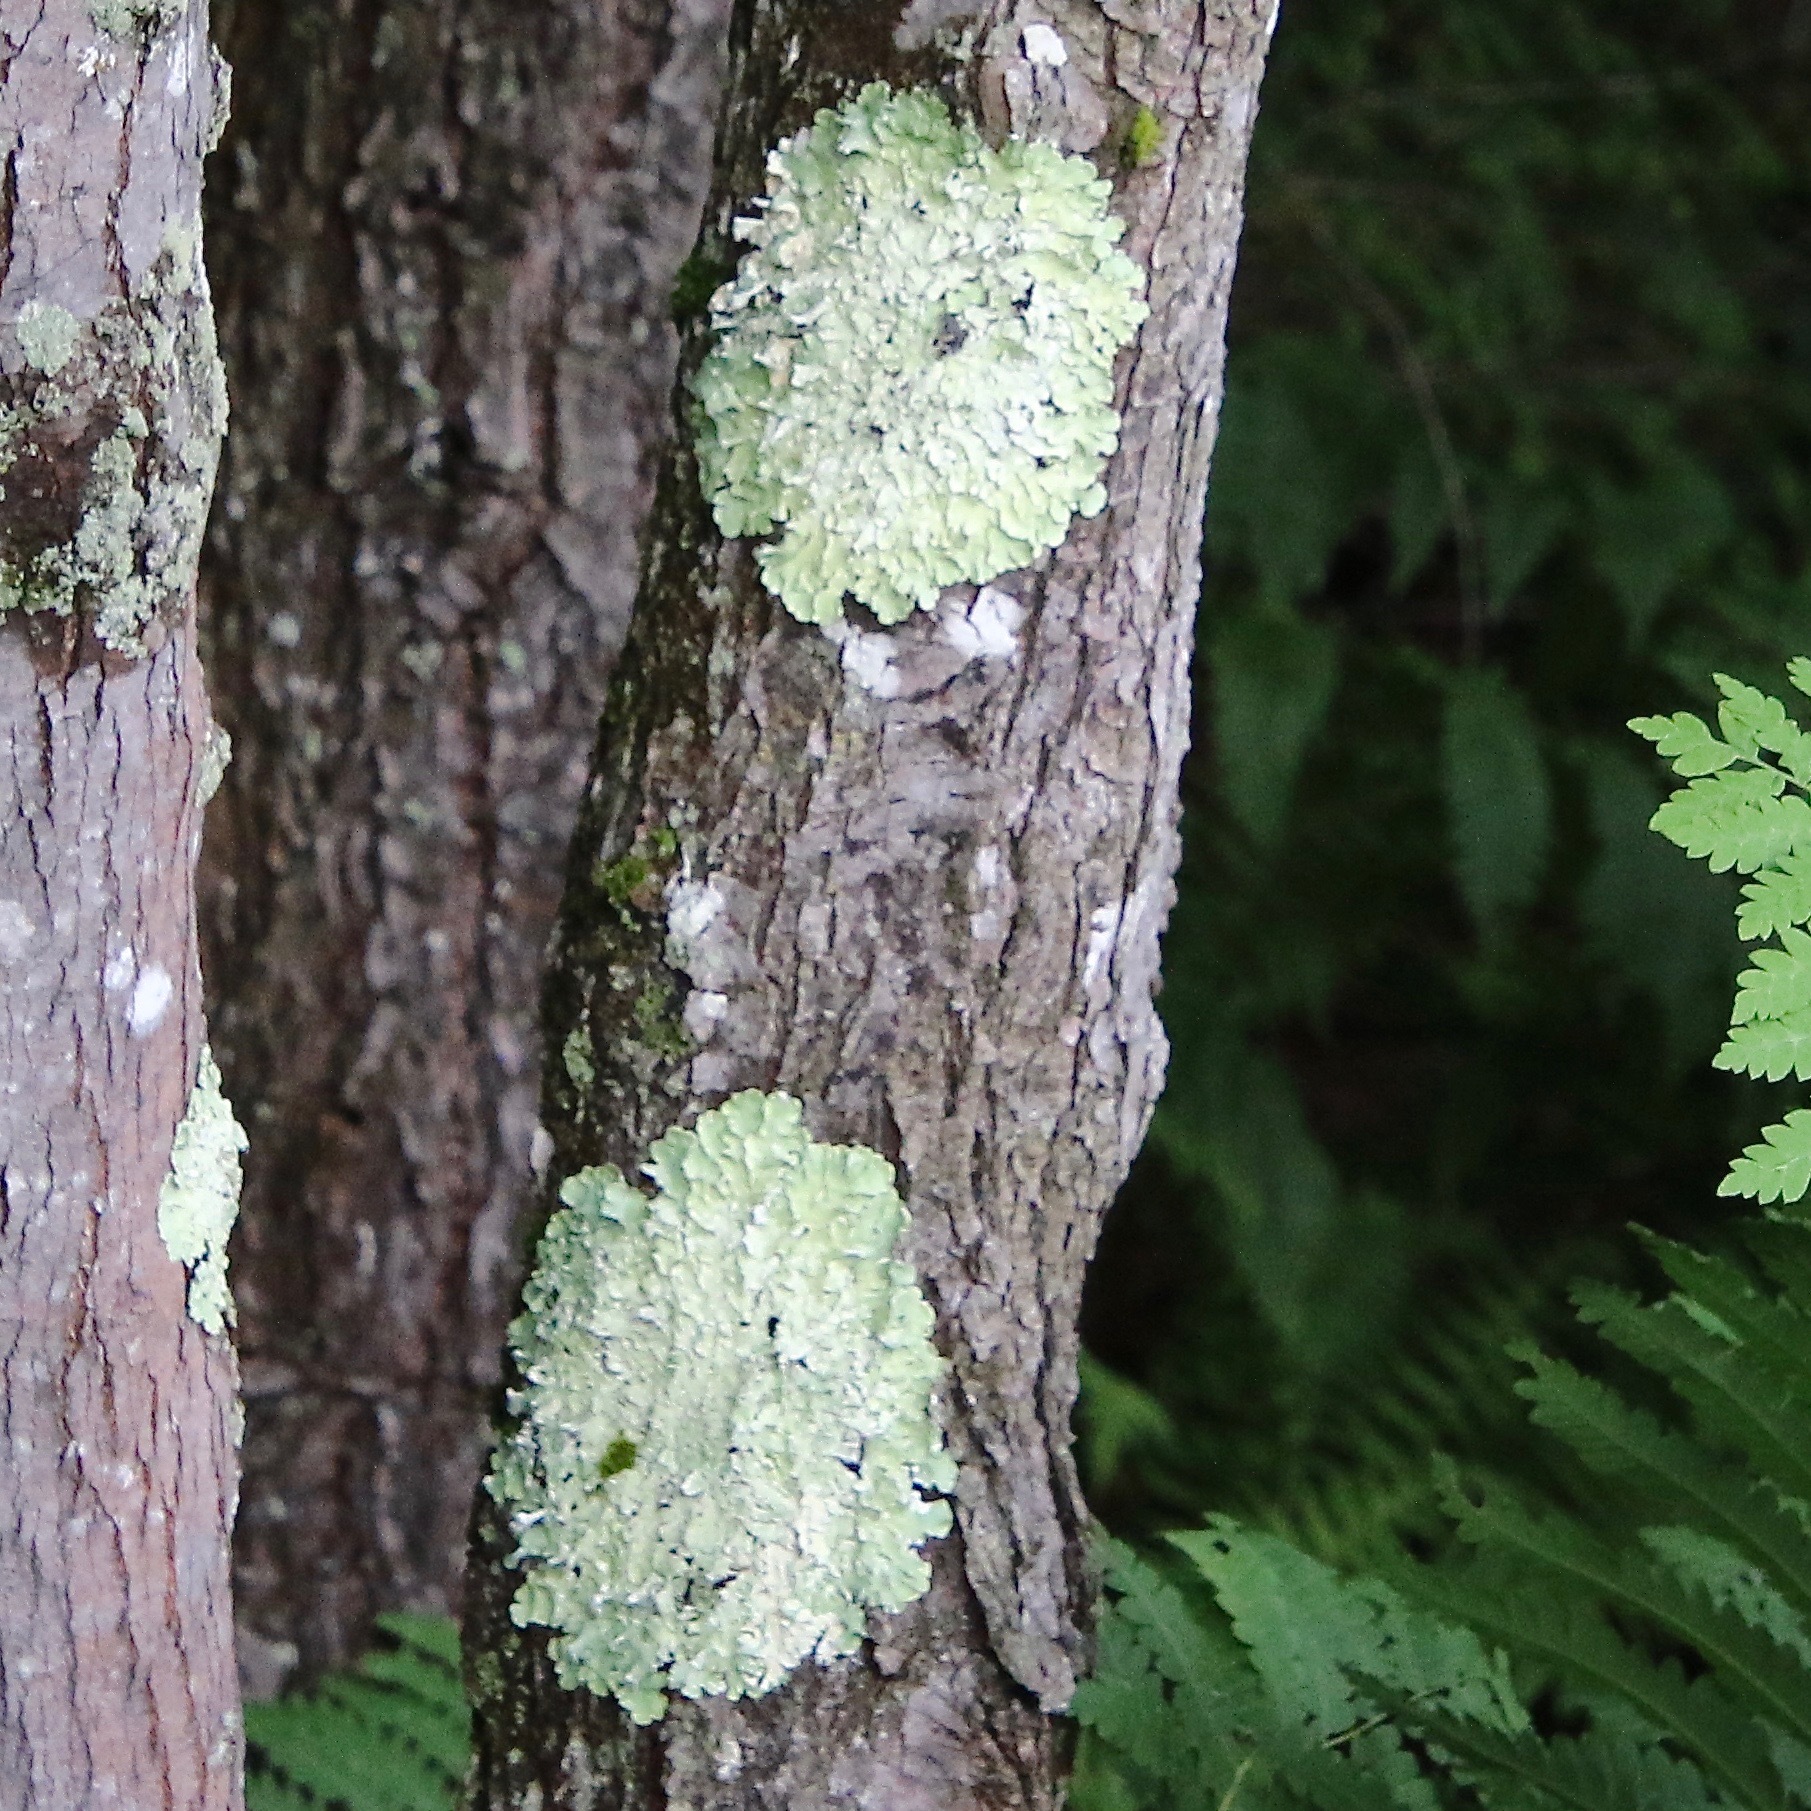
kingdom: Fungi
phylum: Ascomycota
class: Lecanoromycetes
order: Lecanorales
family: Parmeliaceae
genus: Flavoparmelia
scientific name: Flavoparmelia caperata
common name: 40-mile per hour lichen
